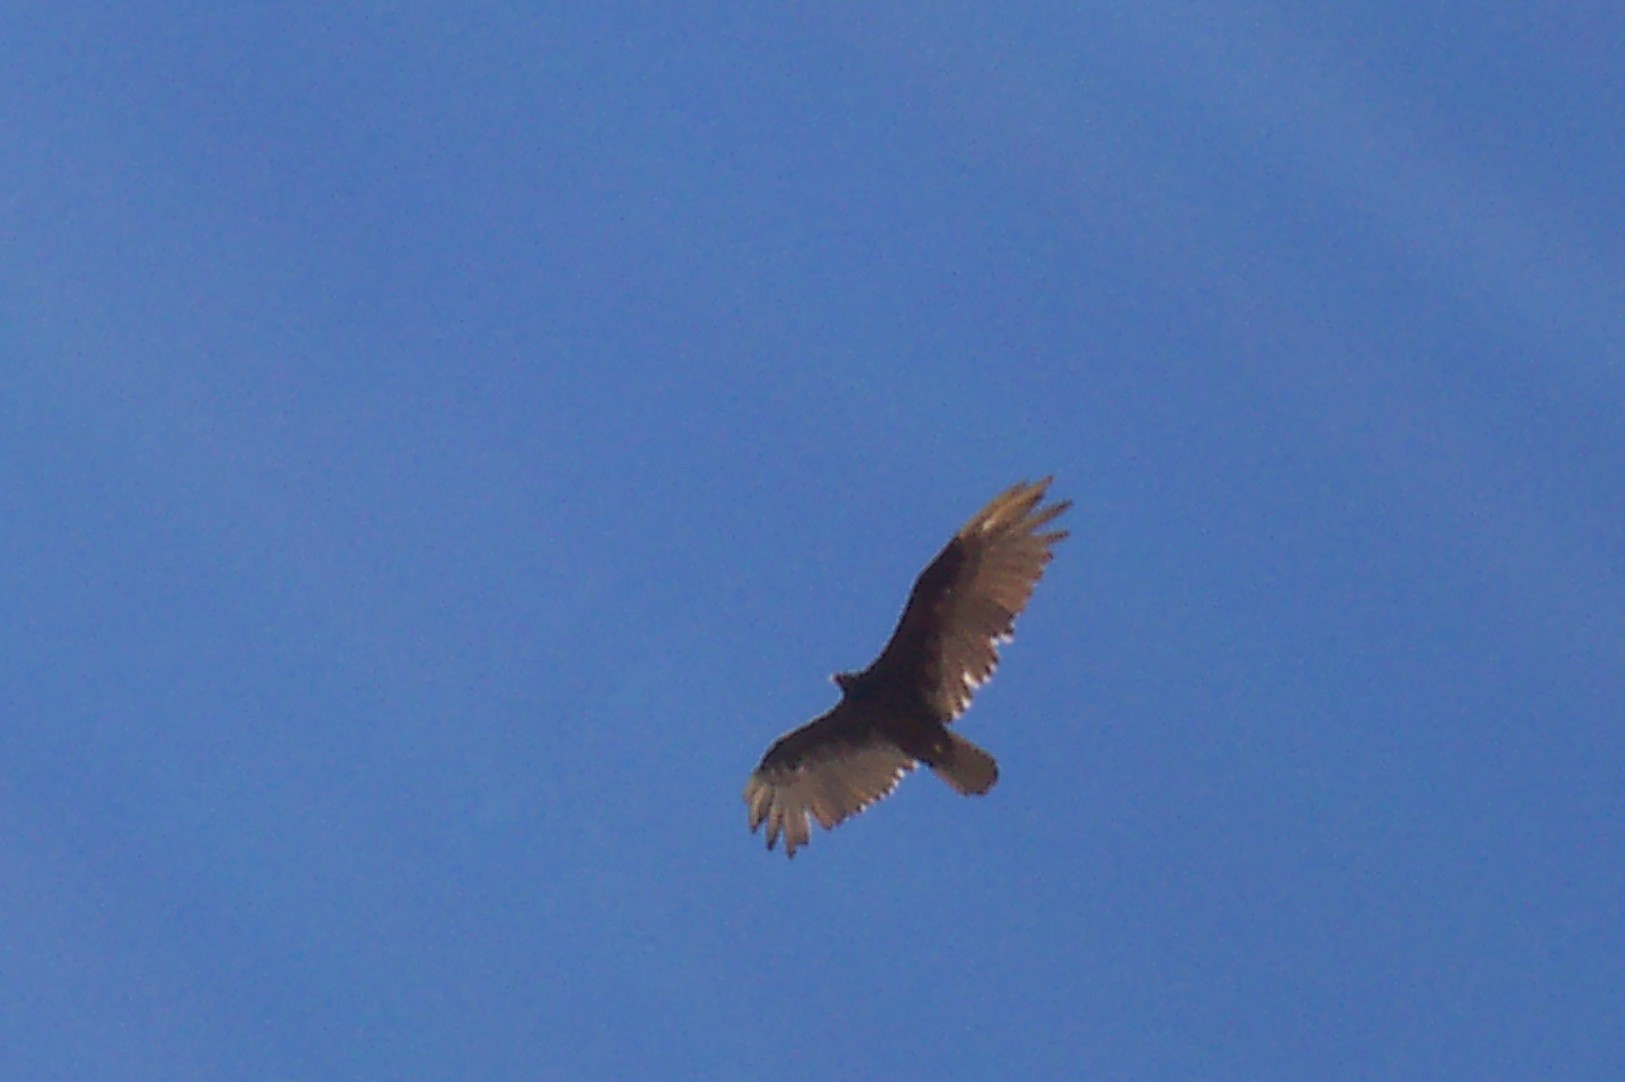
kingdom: Animalia
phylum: Chordata
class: Aves
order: Accipitriformes
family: Cathartidae
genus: Cathartes
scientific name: Cathartes aura
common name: Turkey vulture
